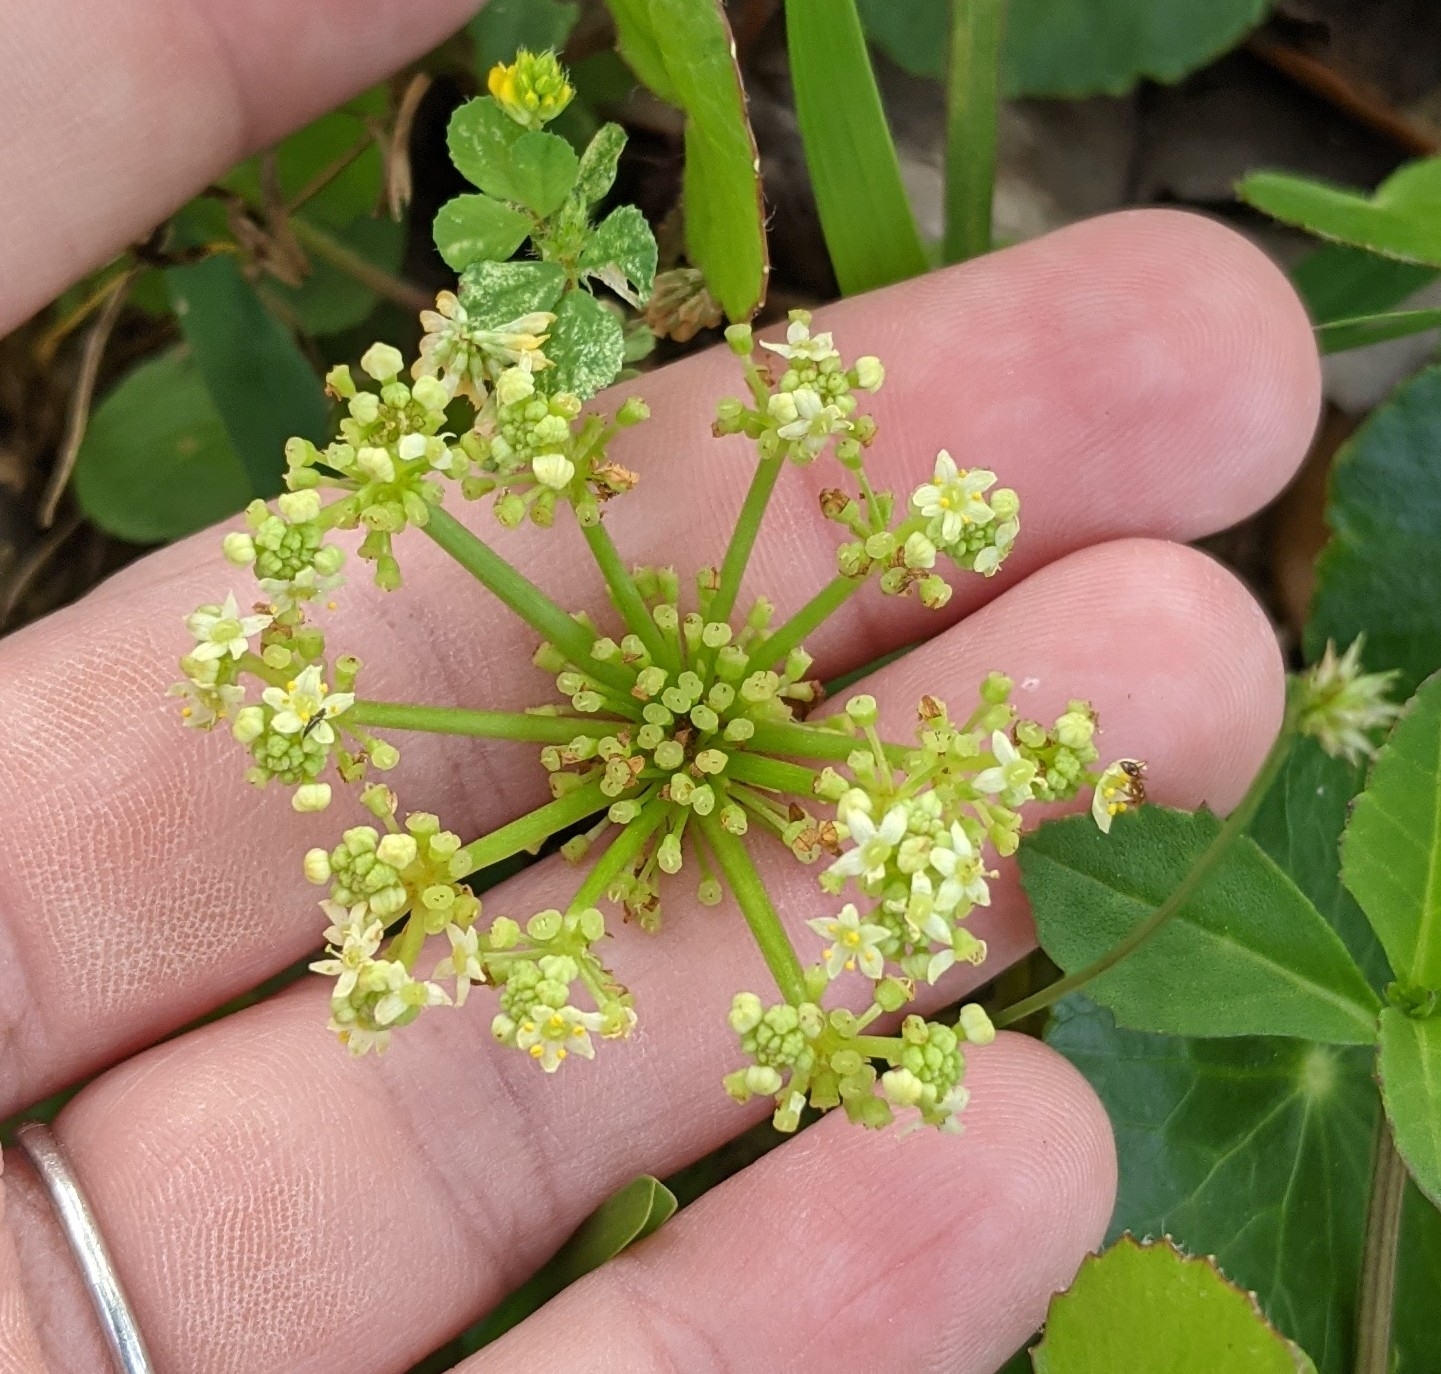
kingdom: Plantae
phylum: Tracheophyta
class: Magnoliopsida
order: Apiales
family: Araliaceae
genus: Hydrocotyle
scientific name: Hydrocotyle bonariensis
